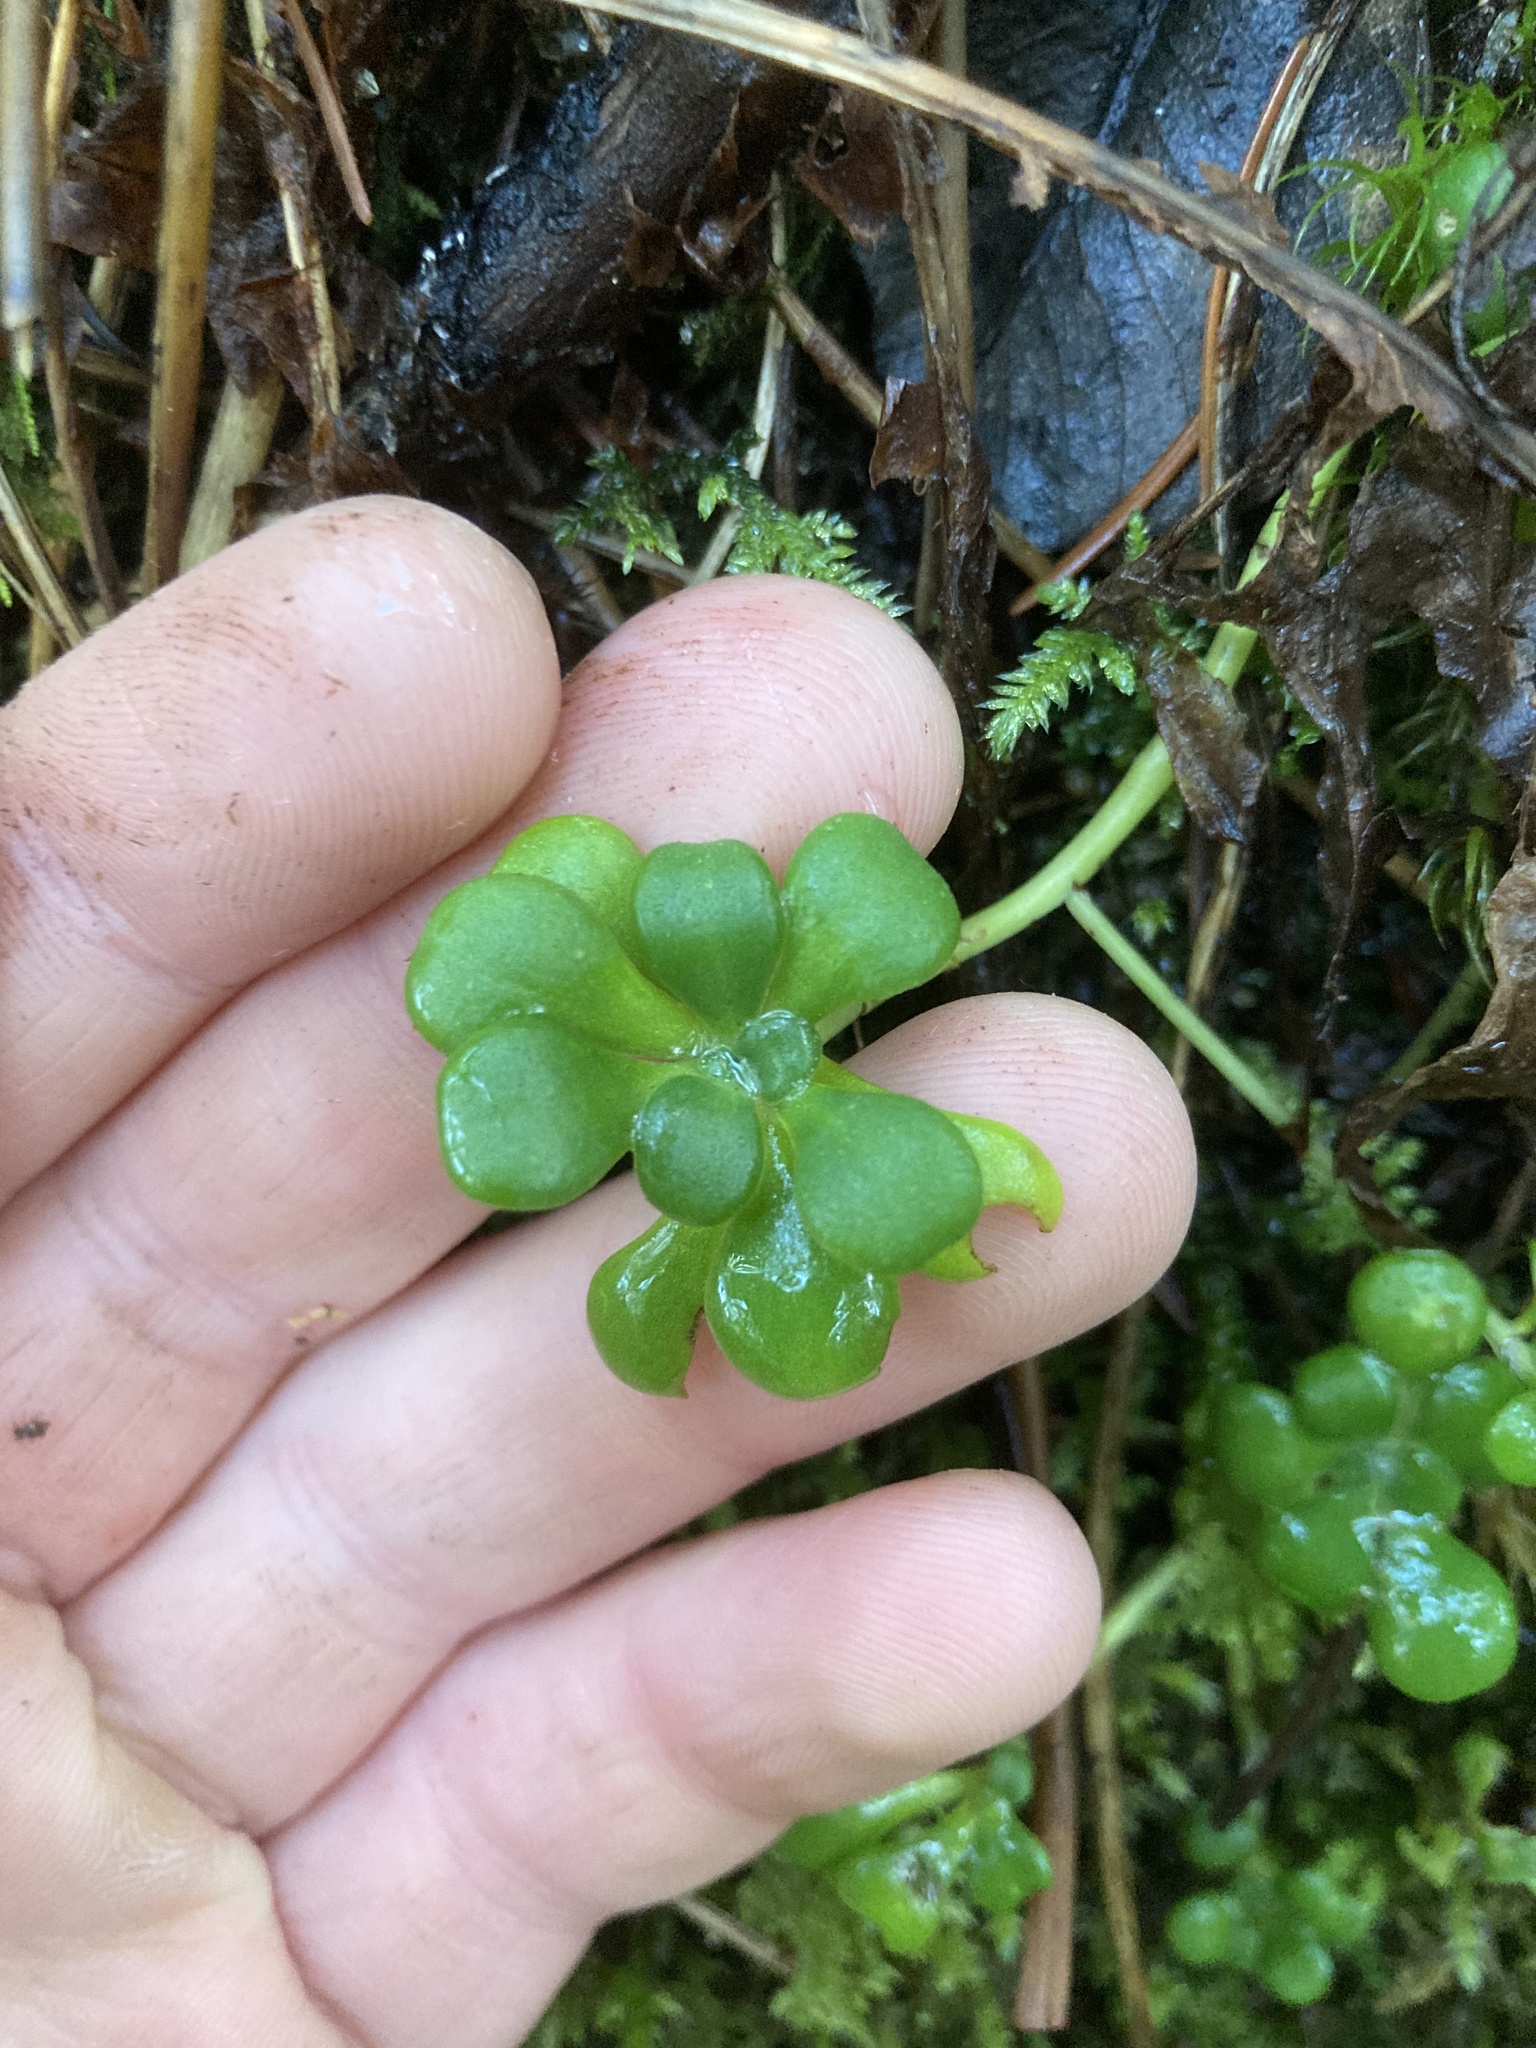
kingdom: Plantae
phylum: Tracheophyta
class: Magnoliopsida
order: Saxifragales
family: Crassulaceae
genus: Sedum
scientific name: Sedum spathulifolium
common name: Colorado stonecrop
